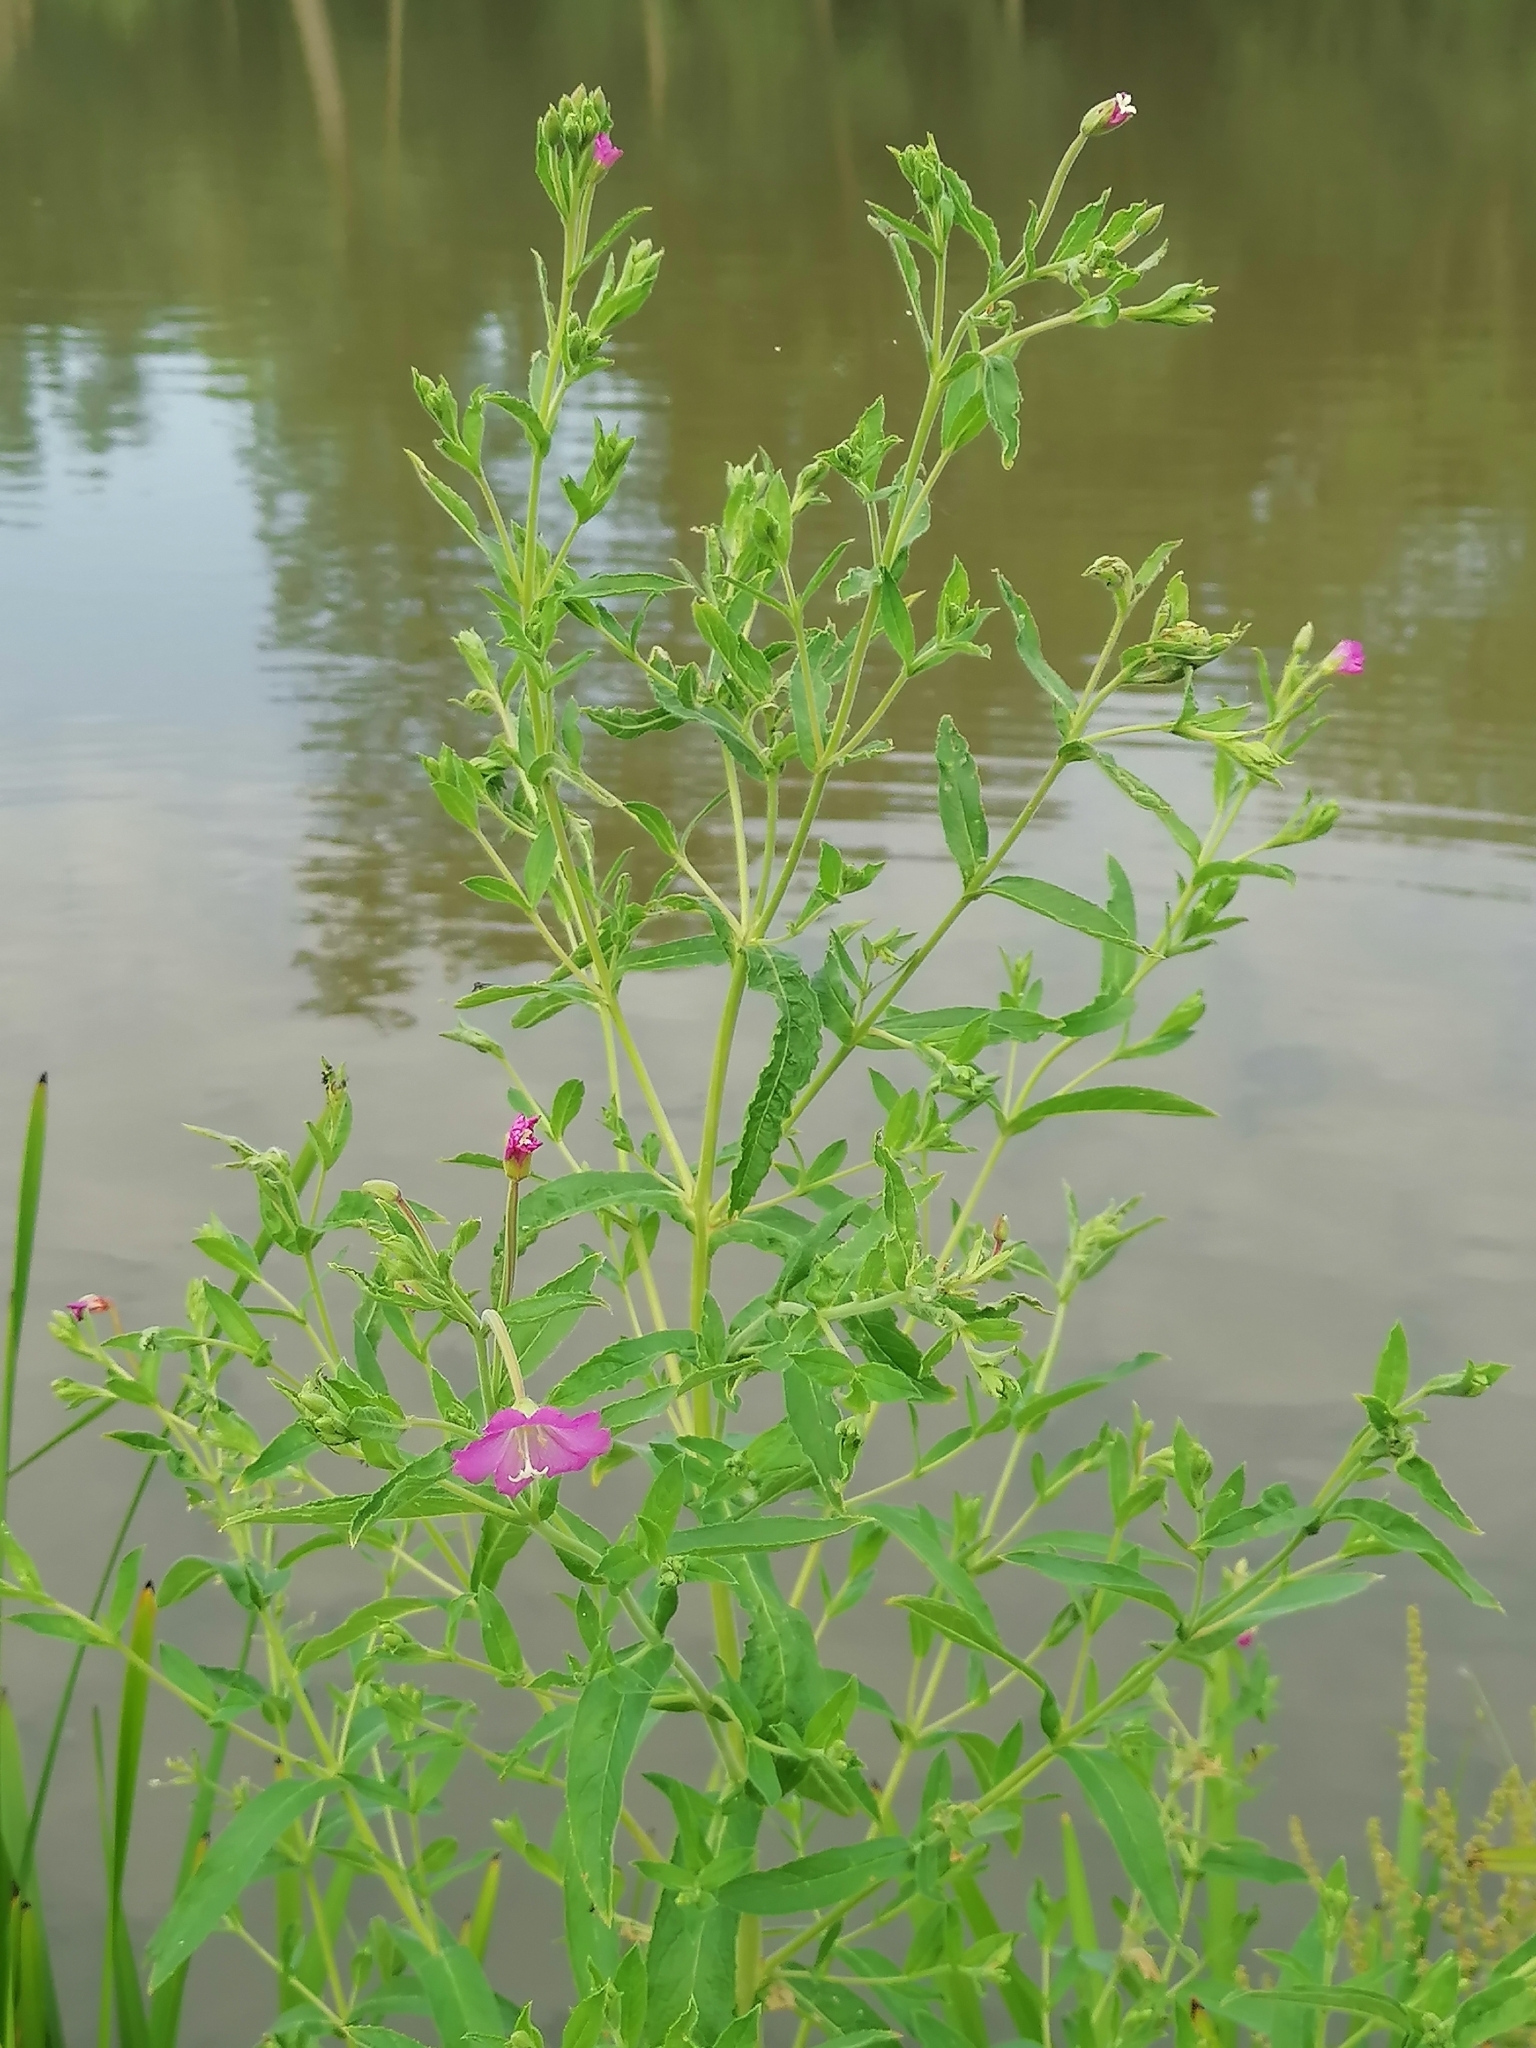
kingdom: Plantae
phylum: Tracheophyta
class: Magnoliopsida
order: Myrtales
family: Onagraceae
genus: Epilobium
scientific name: Epilobium hirsutum
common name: Great willowherb
